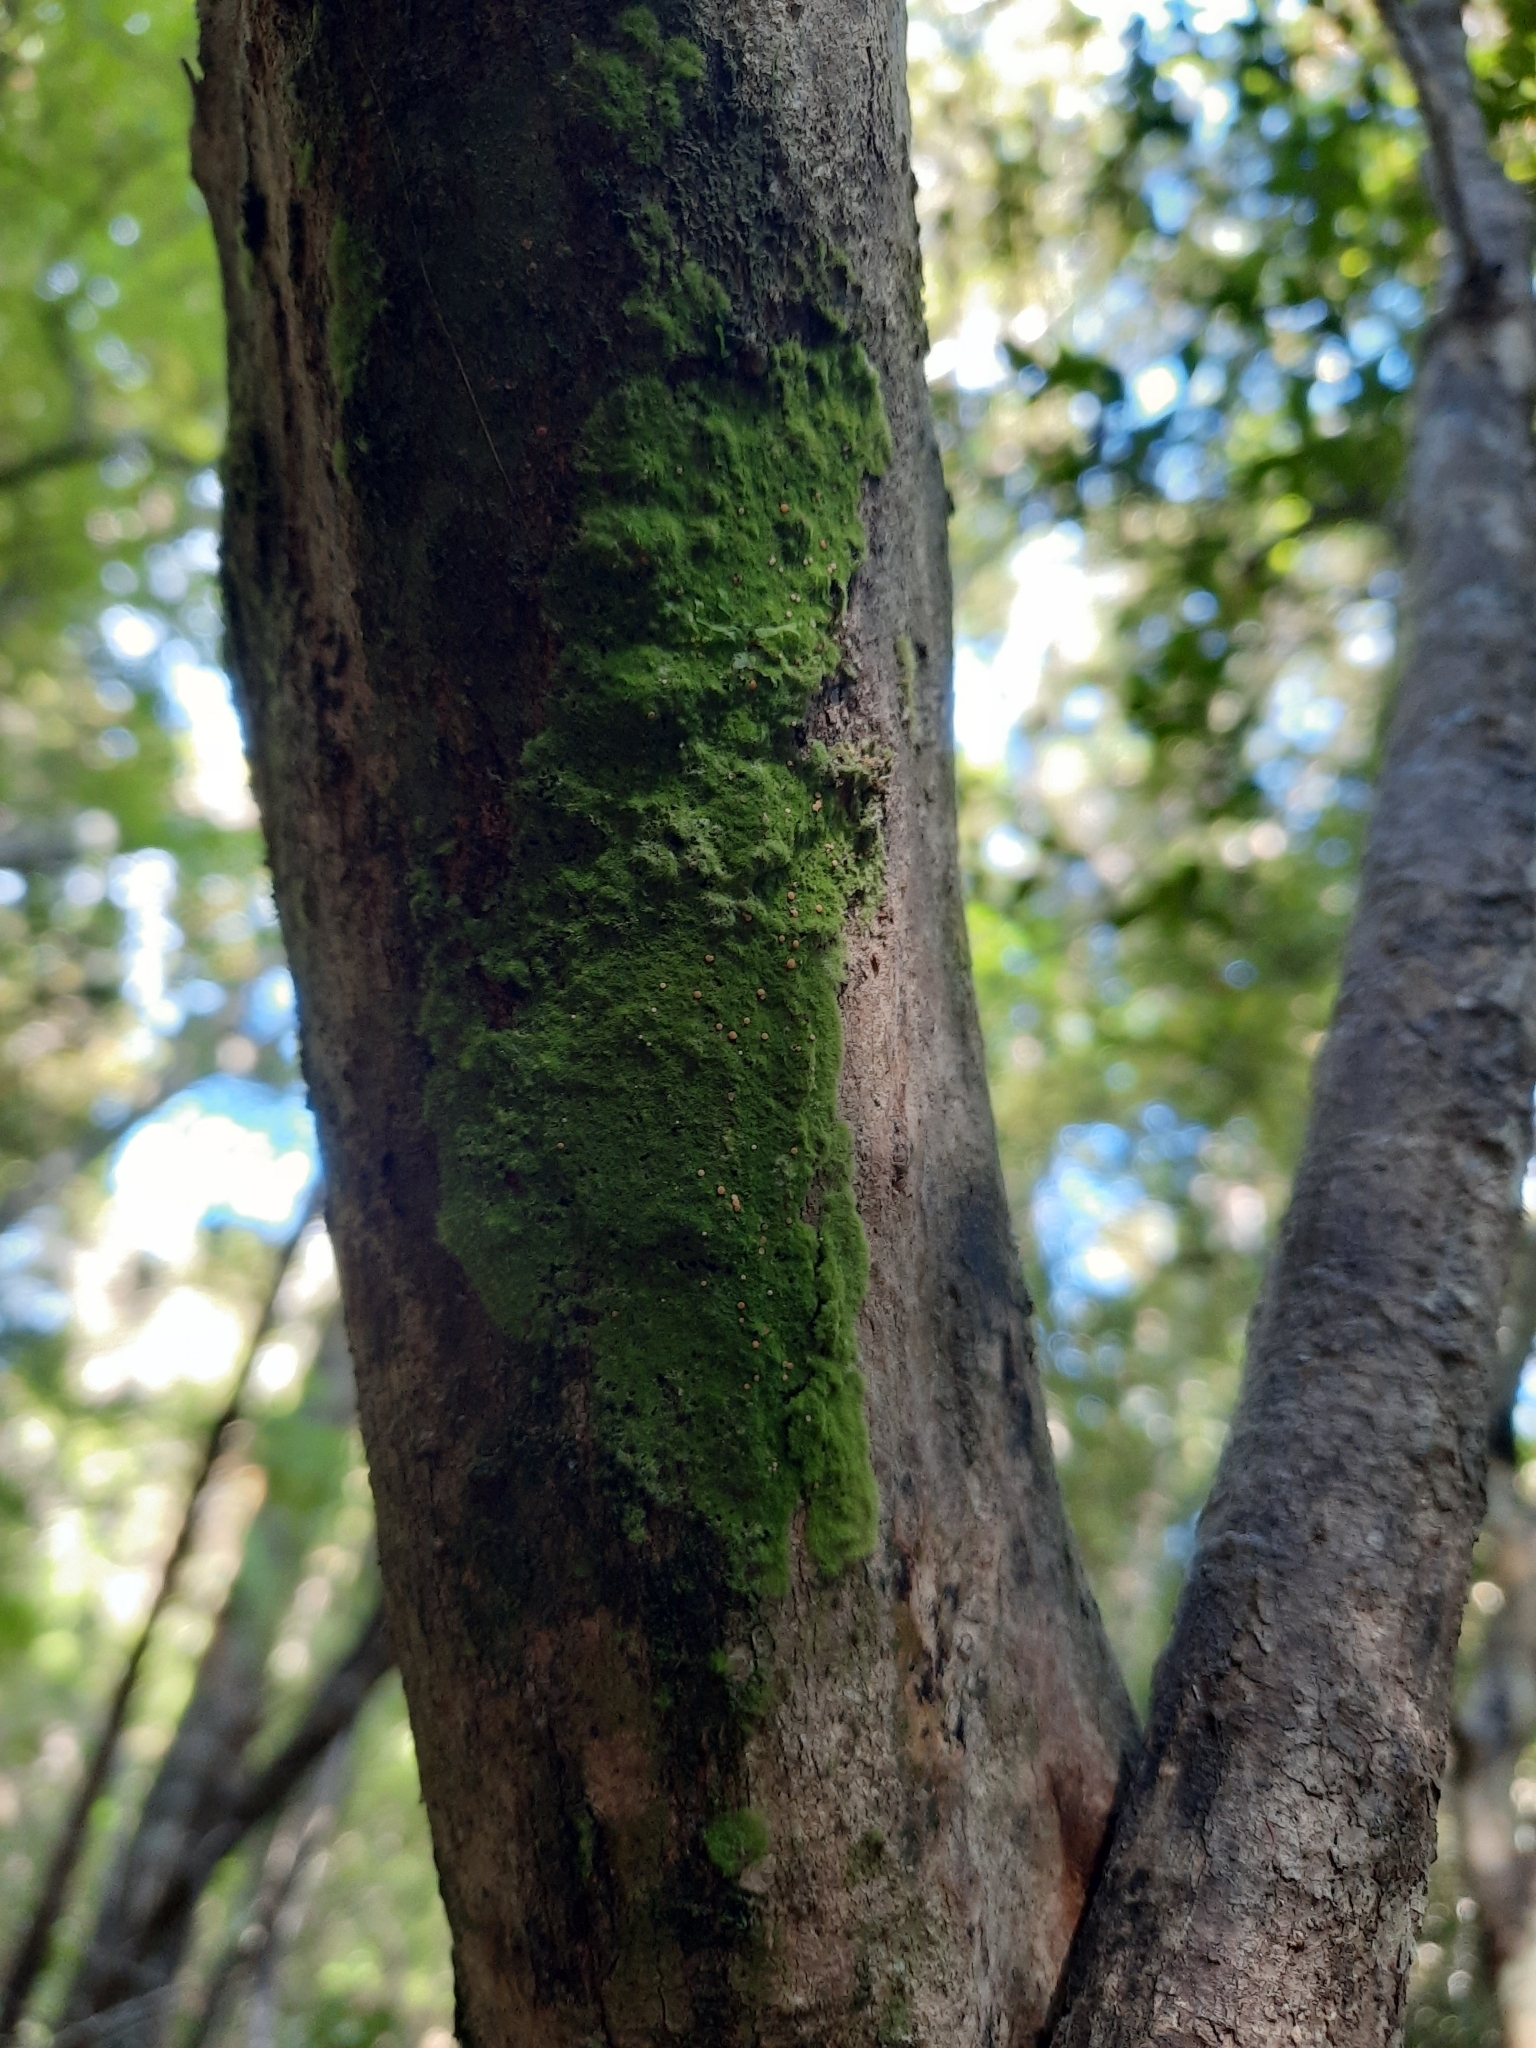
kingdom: Fungi
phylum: Ascomycota
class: Lecanoromycetes
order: Ostropales
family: Coenogoniaceae
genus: Coenogonium
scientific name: Coenogonium implexum
